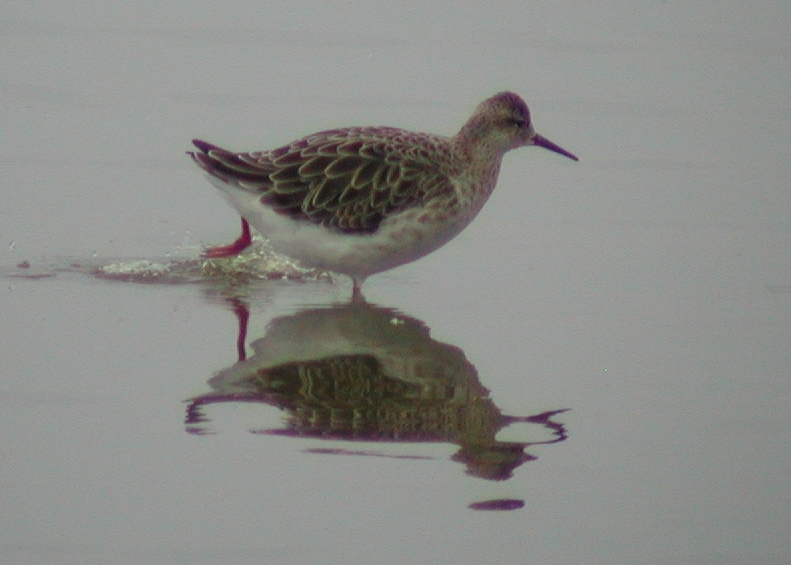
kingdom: Animalia
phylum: Chordata
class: Aves
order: Charadriiformes
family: Scolopacidae
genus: Calidris
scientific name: Calidris pugnax
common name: Ruff
